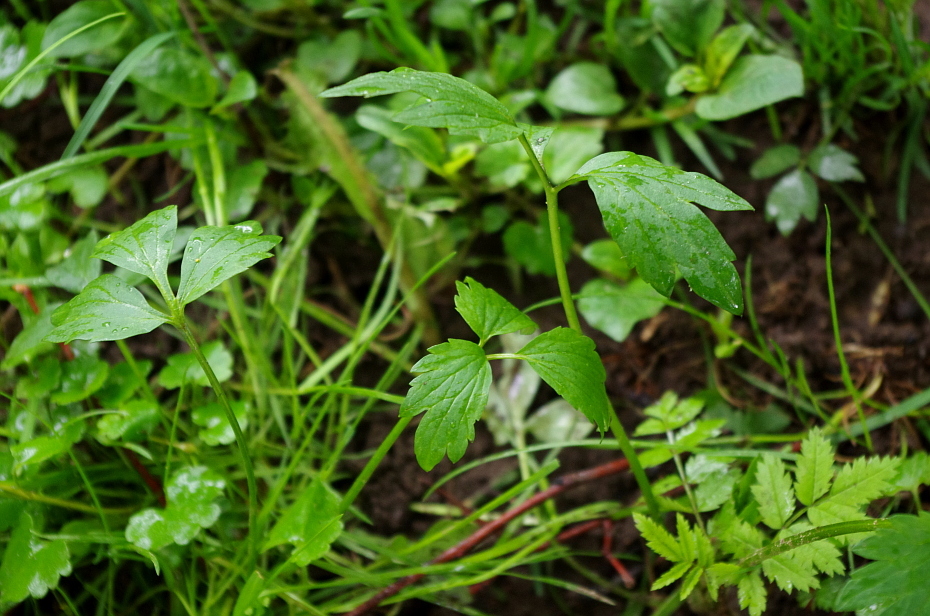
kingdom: Plantae
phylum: Tracheophyta
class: Magnoliopsida
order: Ranunculales
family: Ranunculaceae
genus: Ranunculus
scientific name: Ranunculus repens
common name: Creeping buttercup
